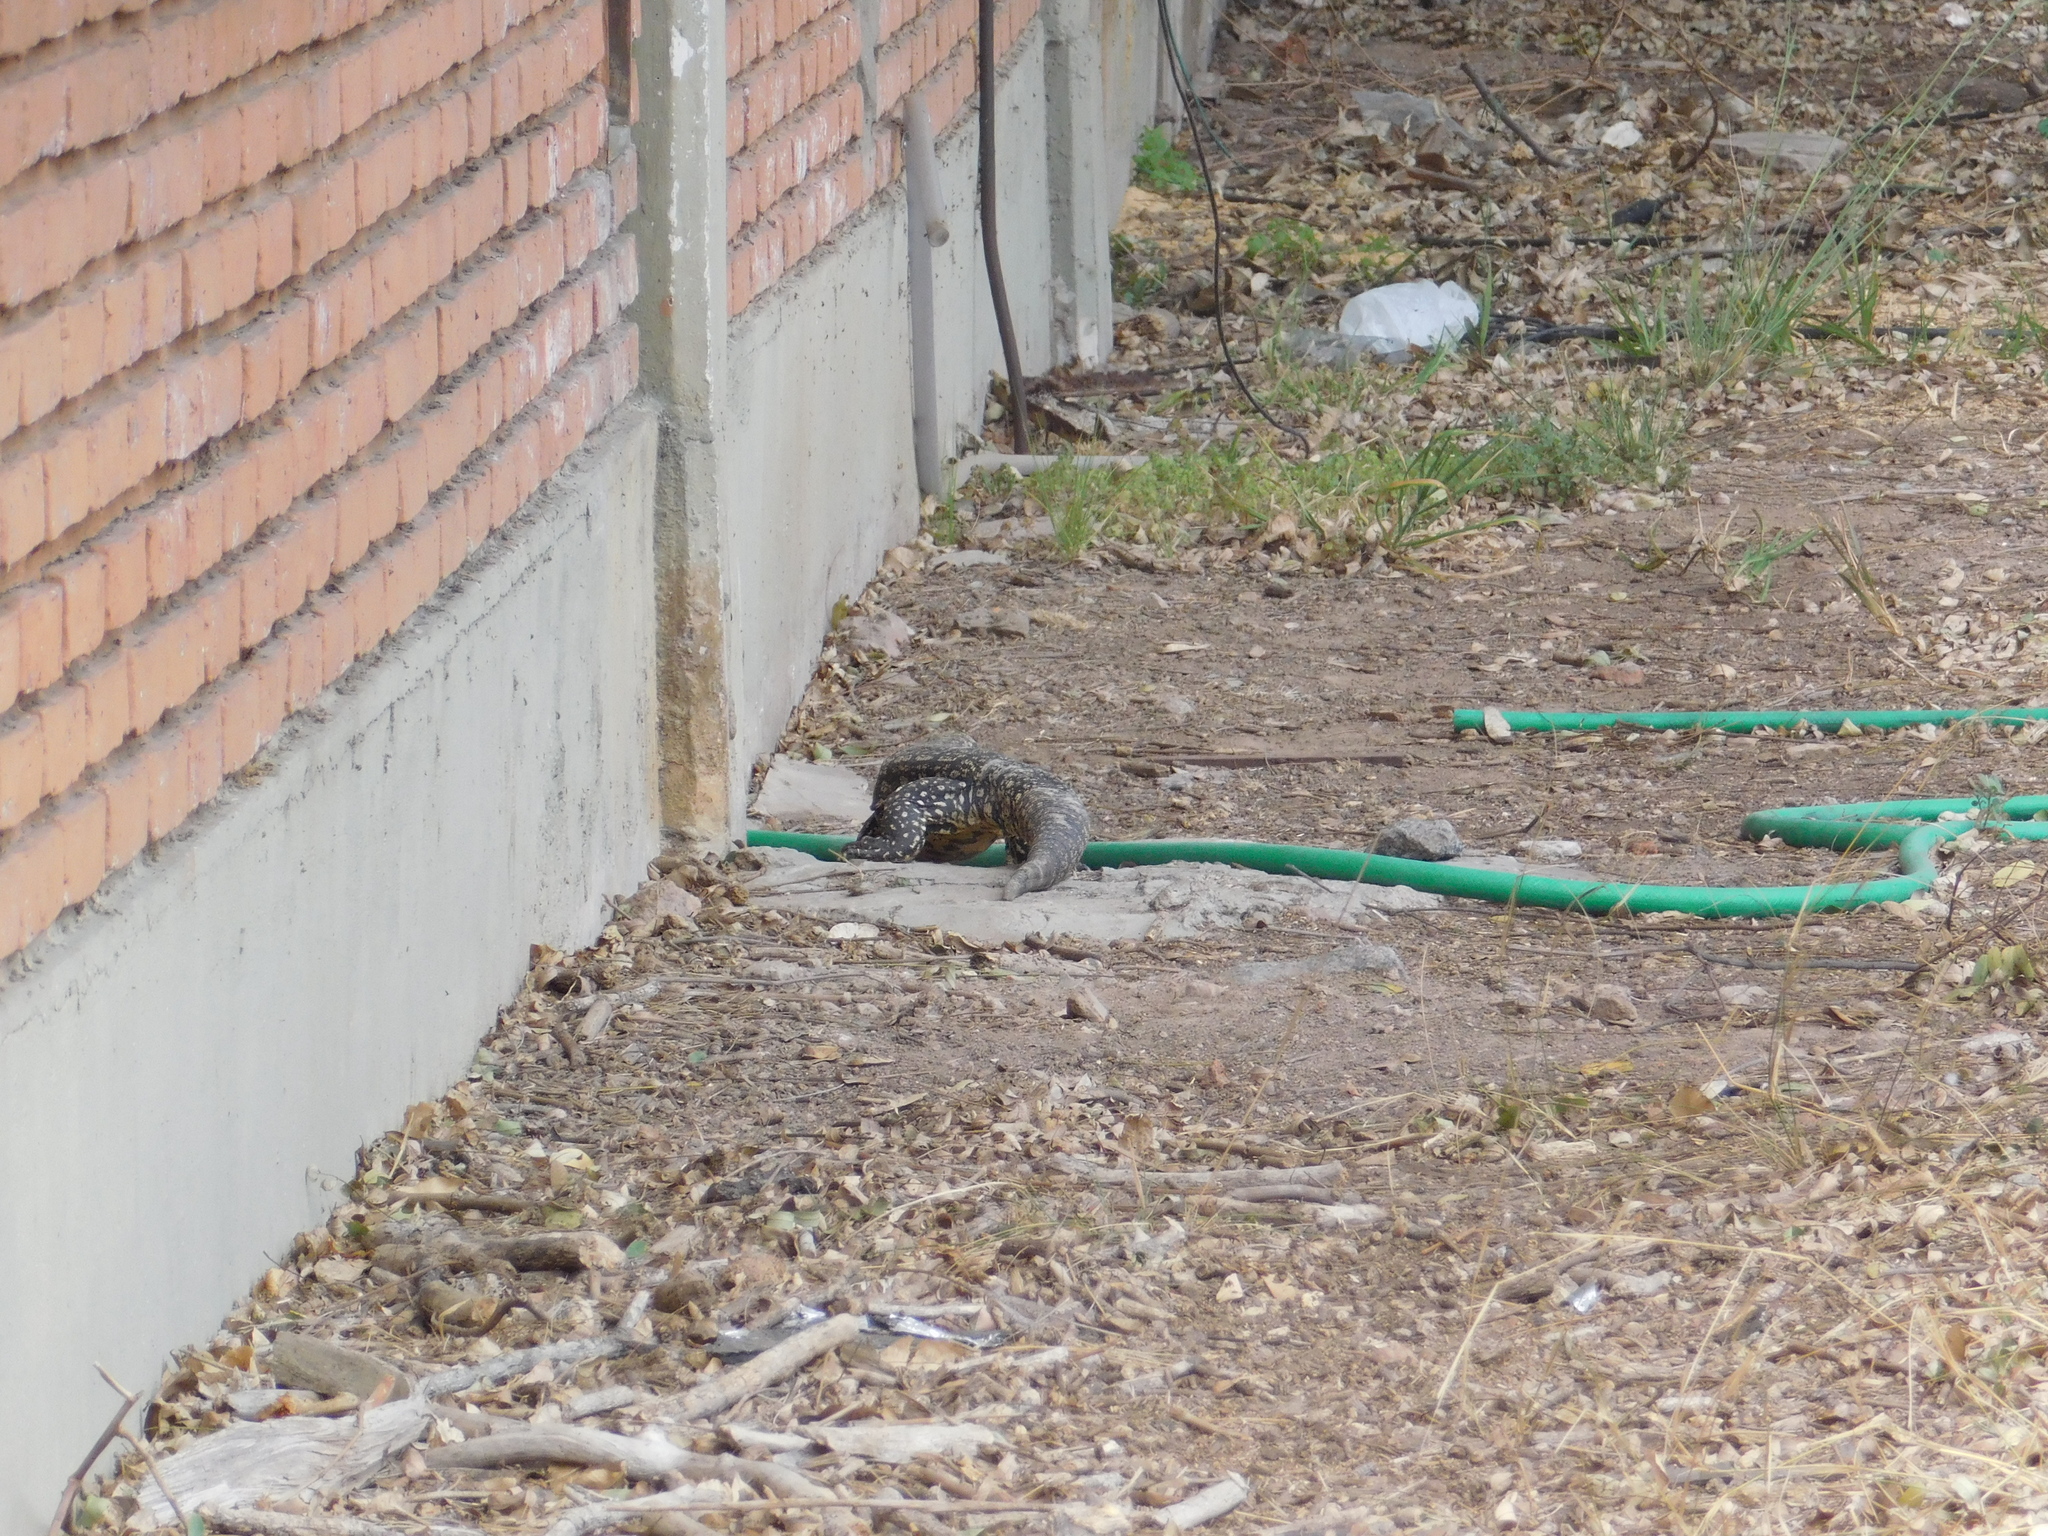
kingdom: Animalia
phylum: Chordata
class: Squamata
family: Teiidae
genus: Salvator
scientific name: Salvator merianae
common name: Argentine black and white tegu
